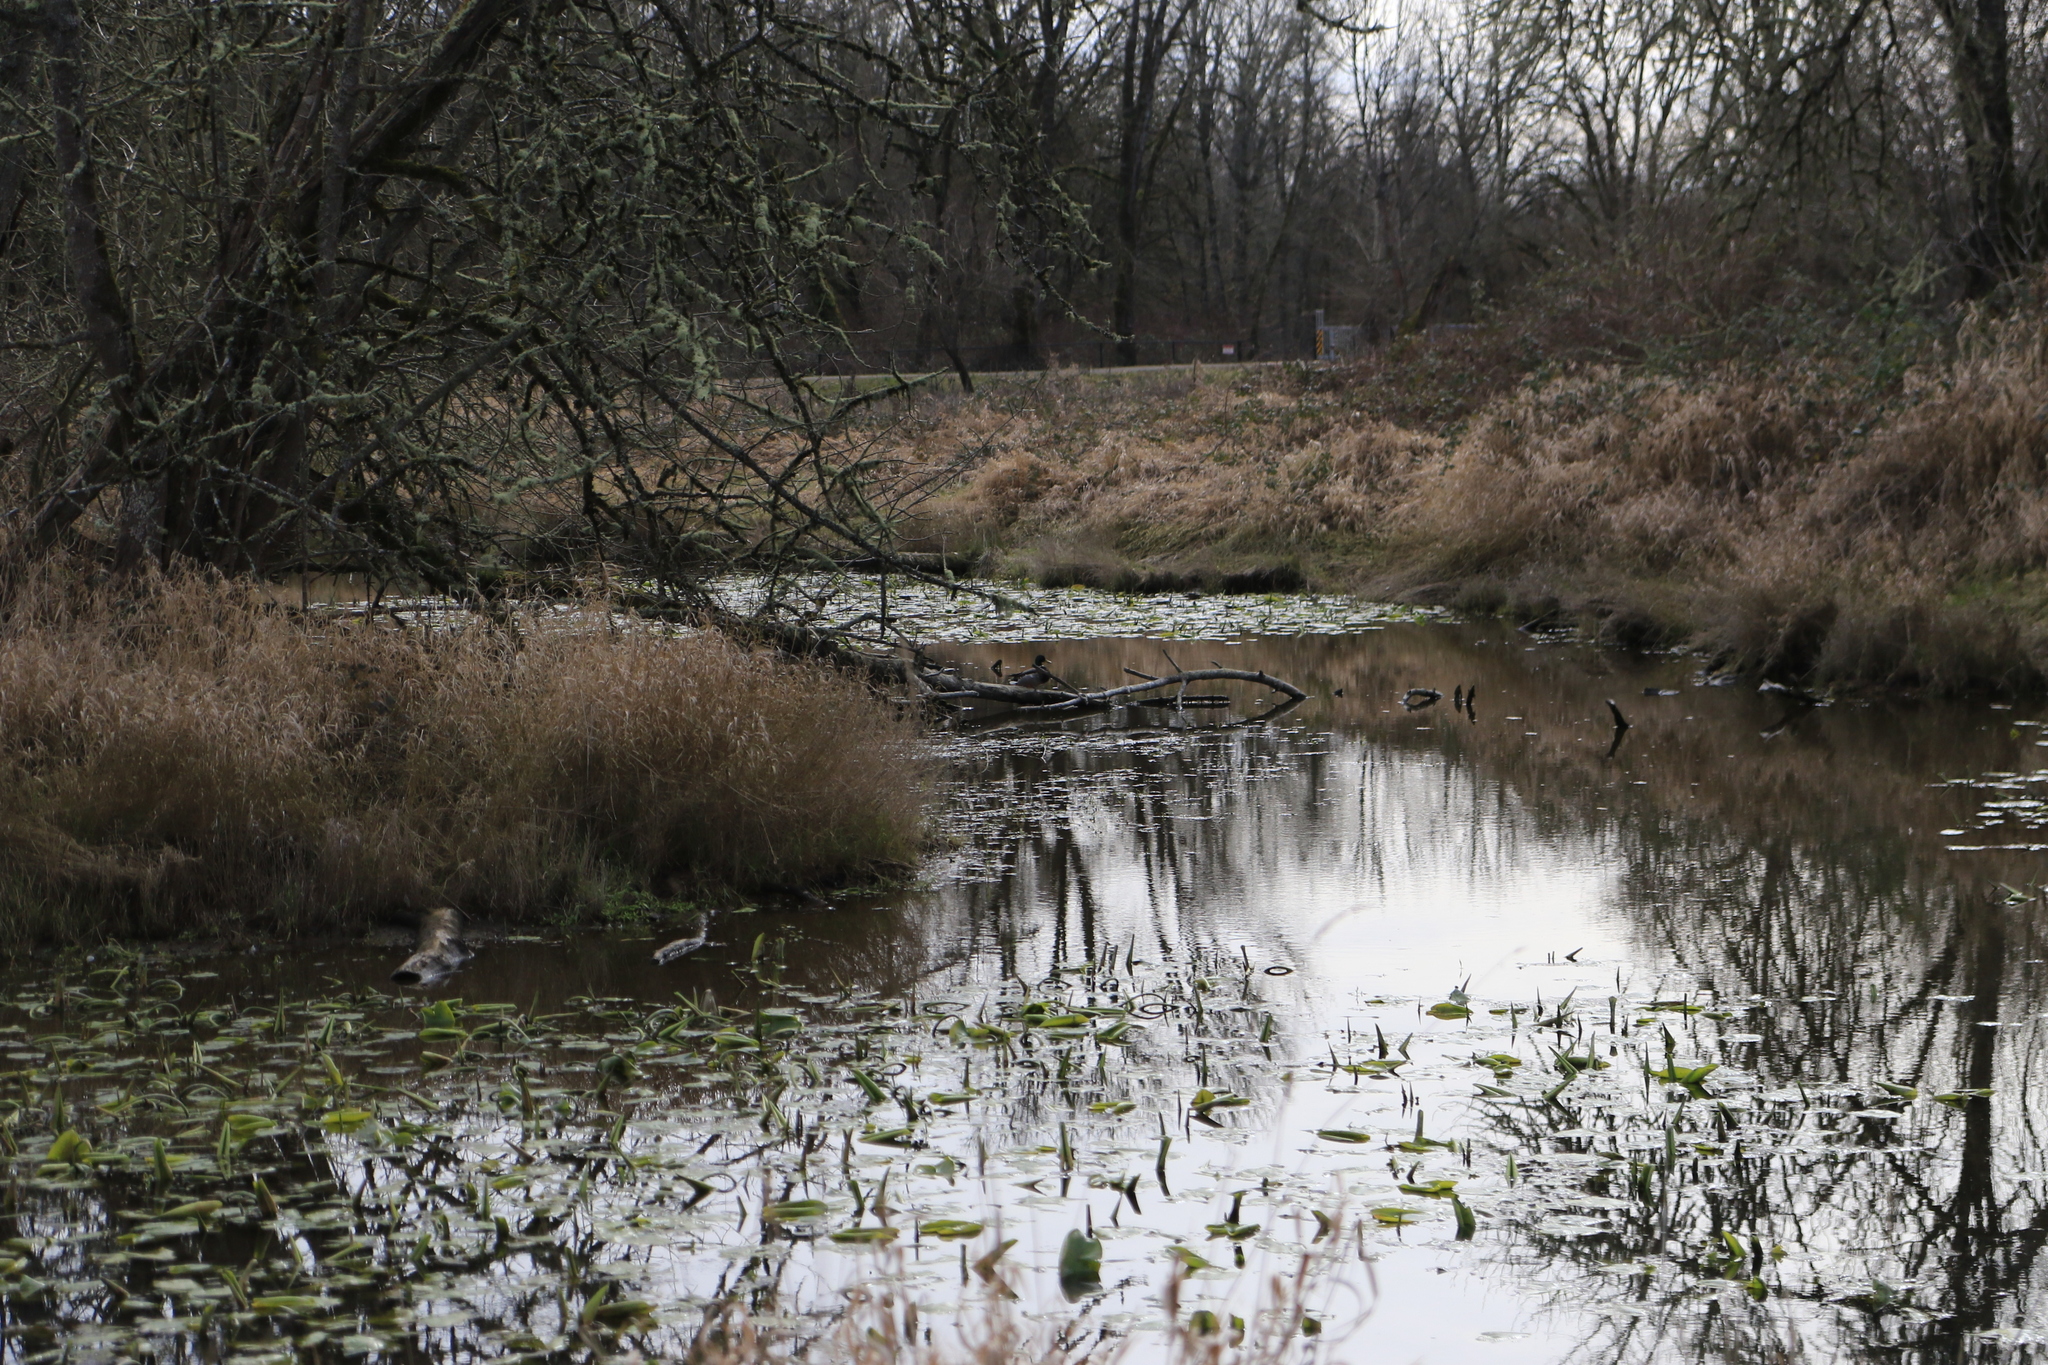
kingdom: Animalia
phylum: Chordata
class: Aves
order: Anseriformes
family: Anatidae
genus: Anas
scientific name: Anas platyrhynchos
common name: Mallard
